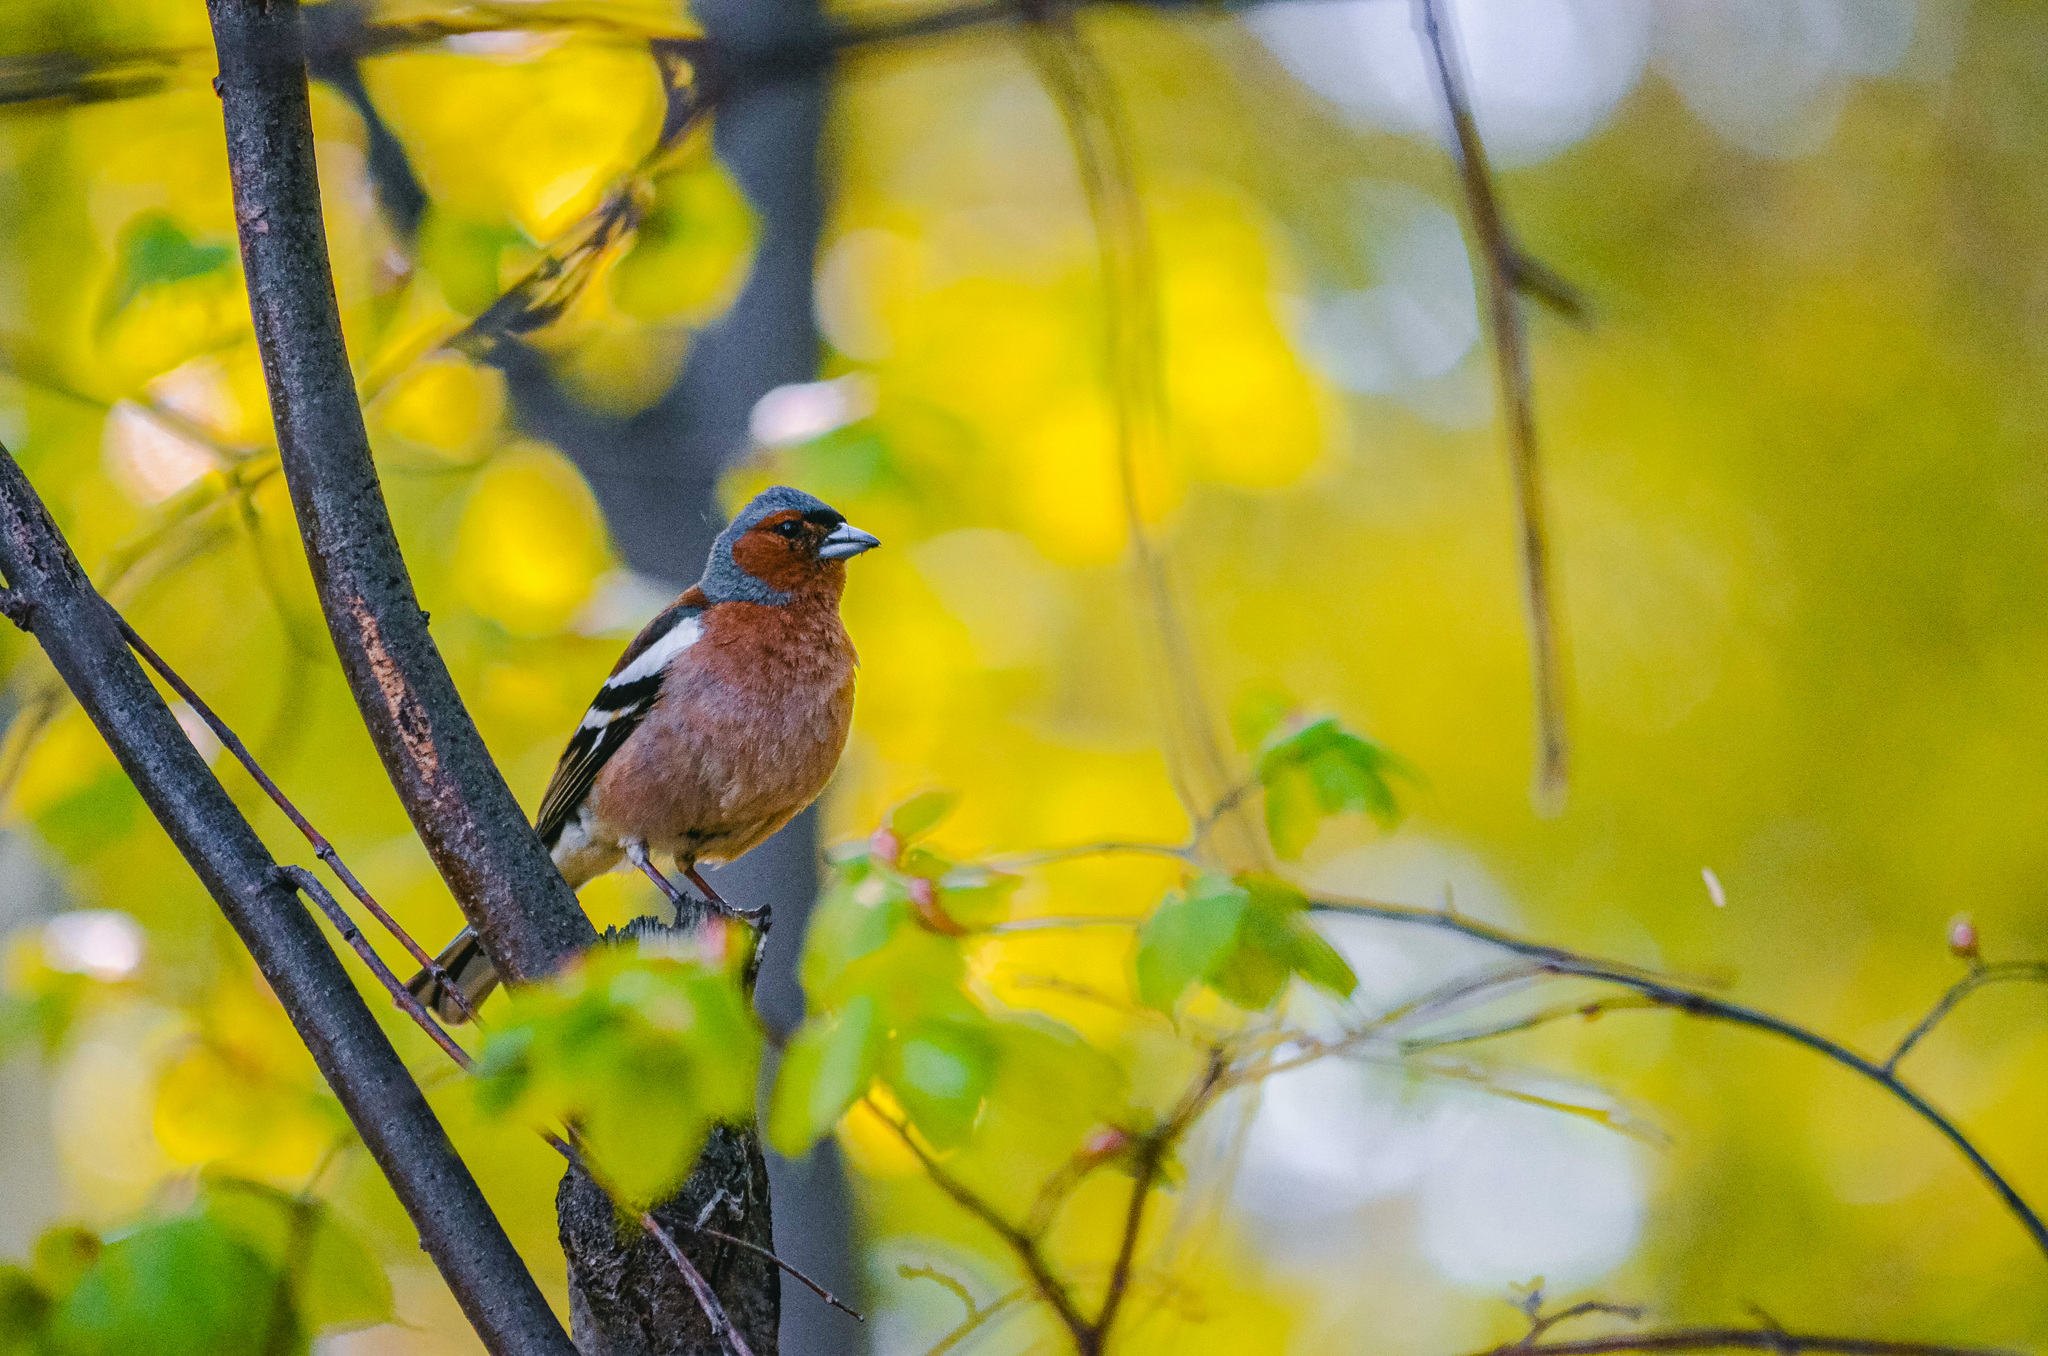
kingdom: Animalia
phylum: Chordata
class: Aves
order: Passeriformes
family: Fringillidae
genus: Fringilla
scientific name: Fringilla coelebs
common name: Common chaffinch
